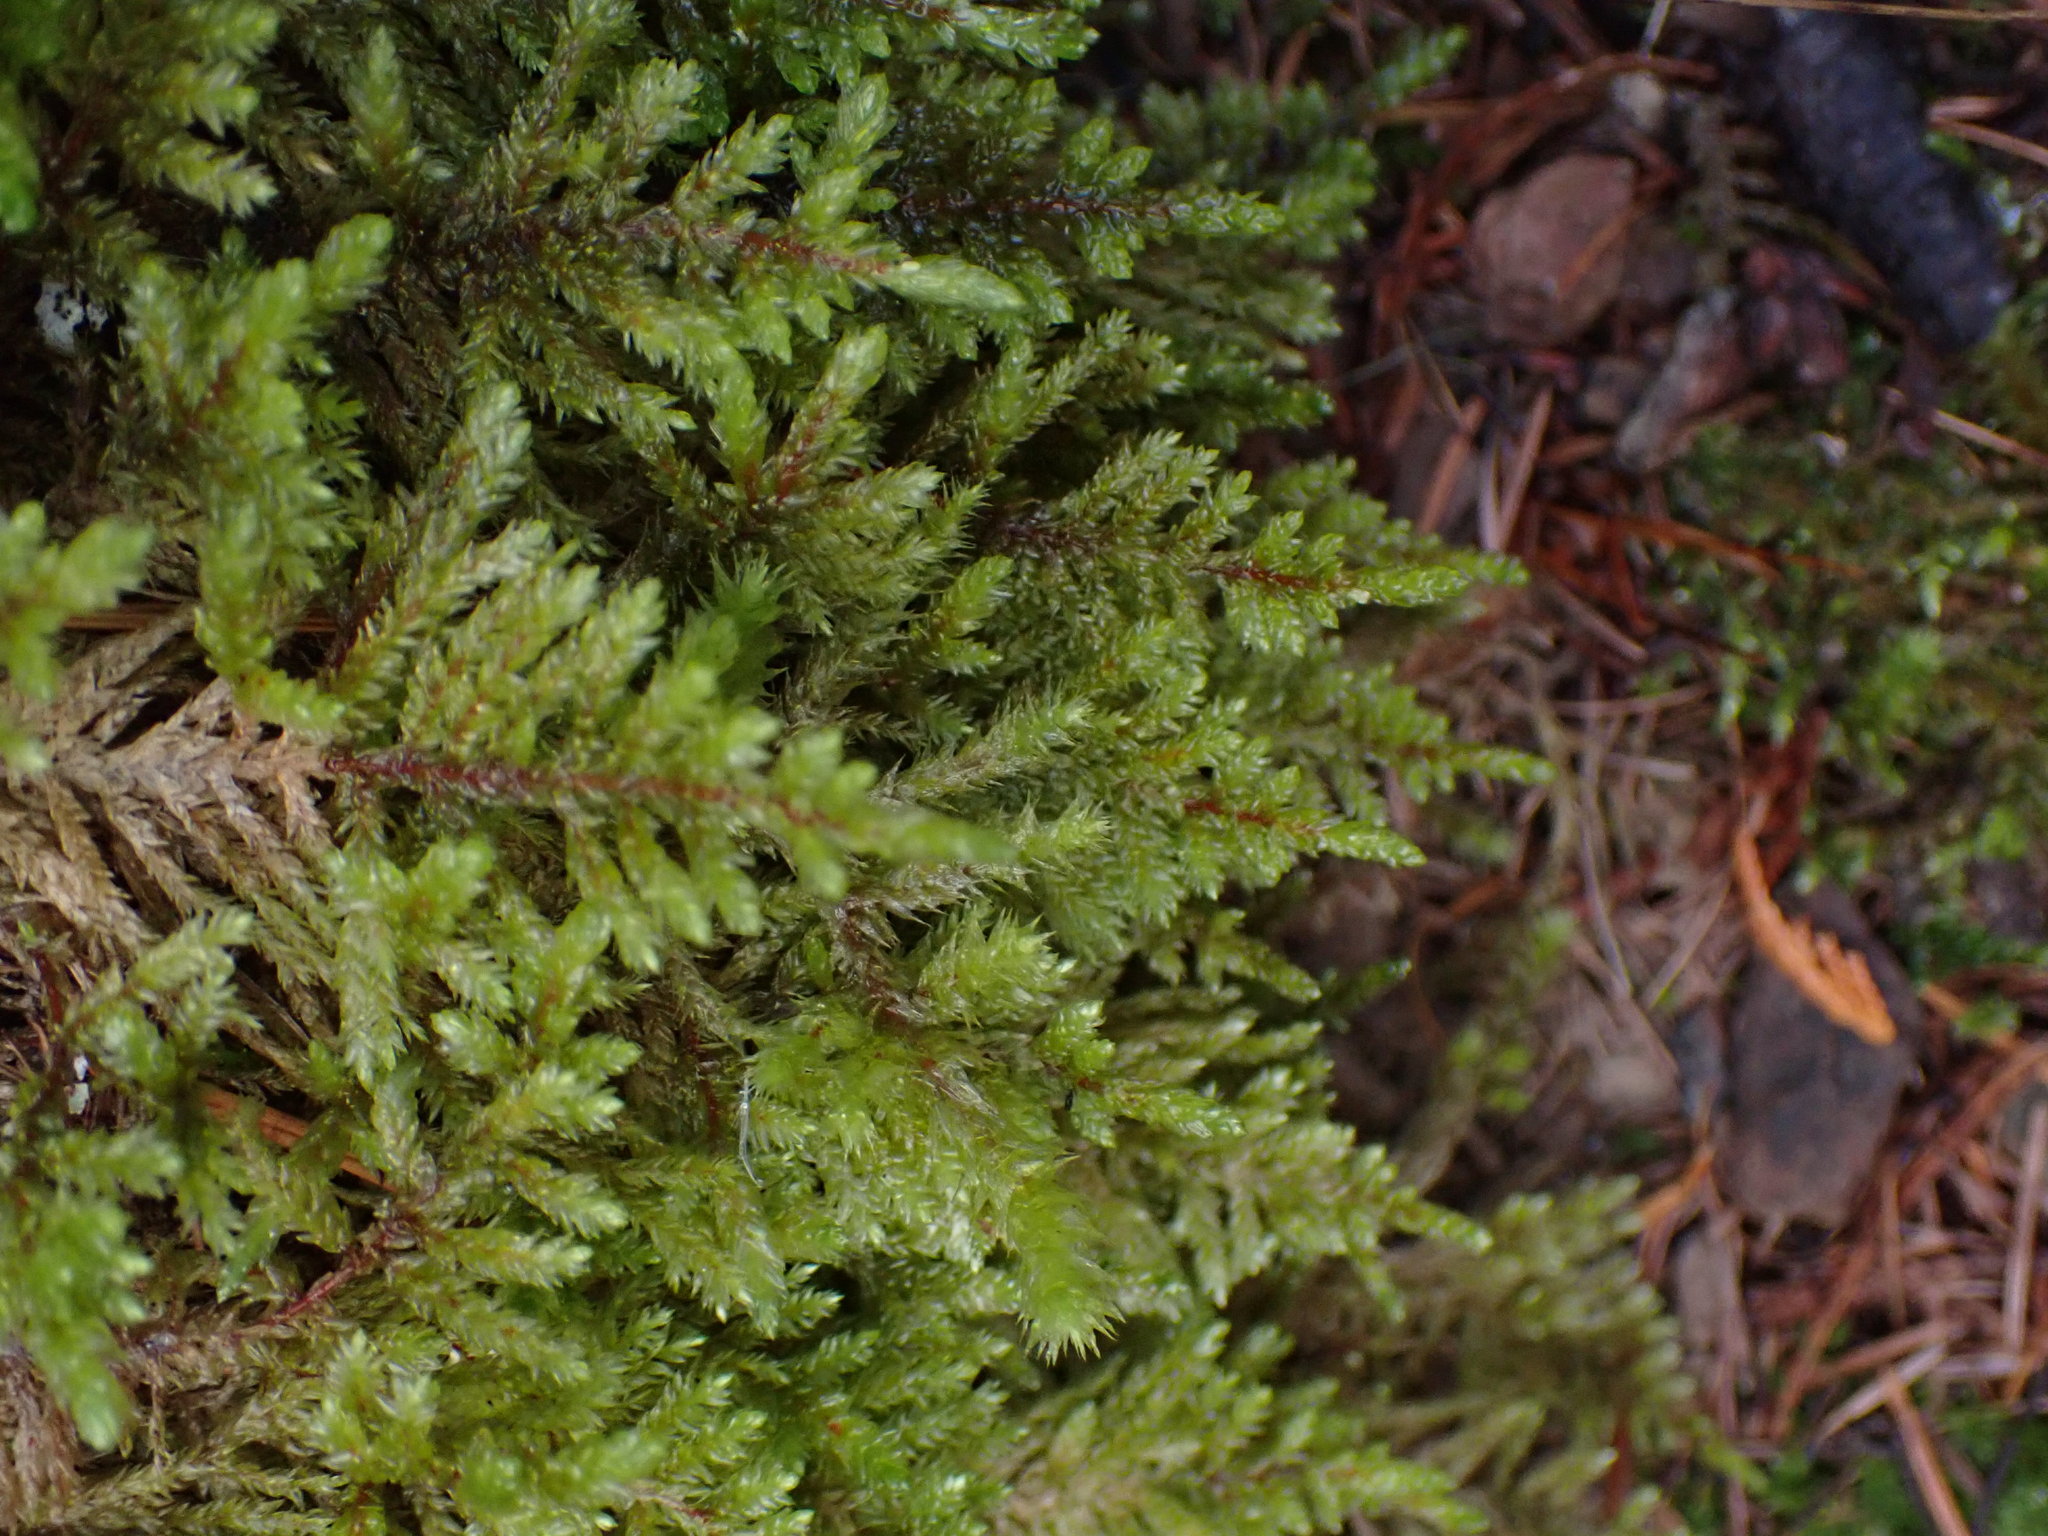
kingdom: Plantae
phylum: Bryophyta
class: Bryopsida
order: Hypnales
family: Hylocomiaceae
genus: Pleurozium
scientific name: Pleurozium schreberi
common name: Red-stemmed feather moss
